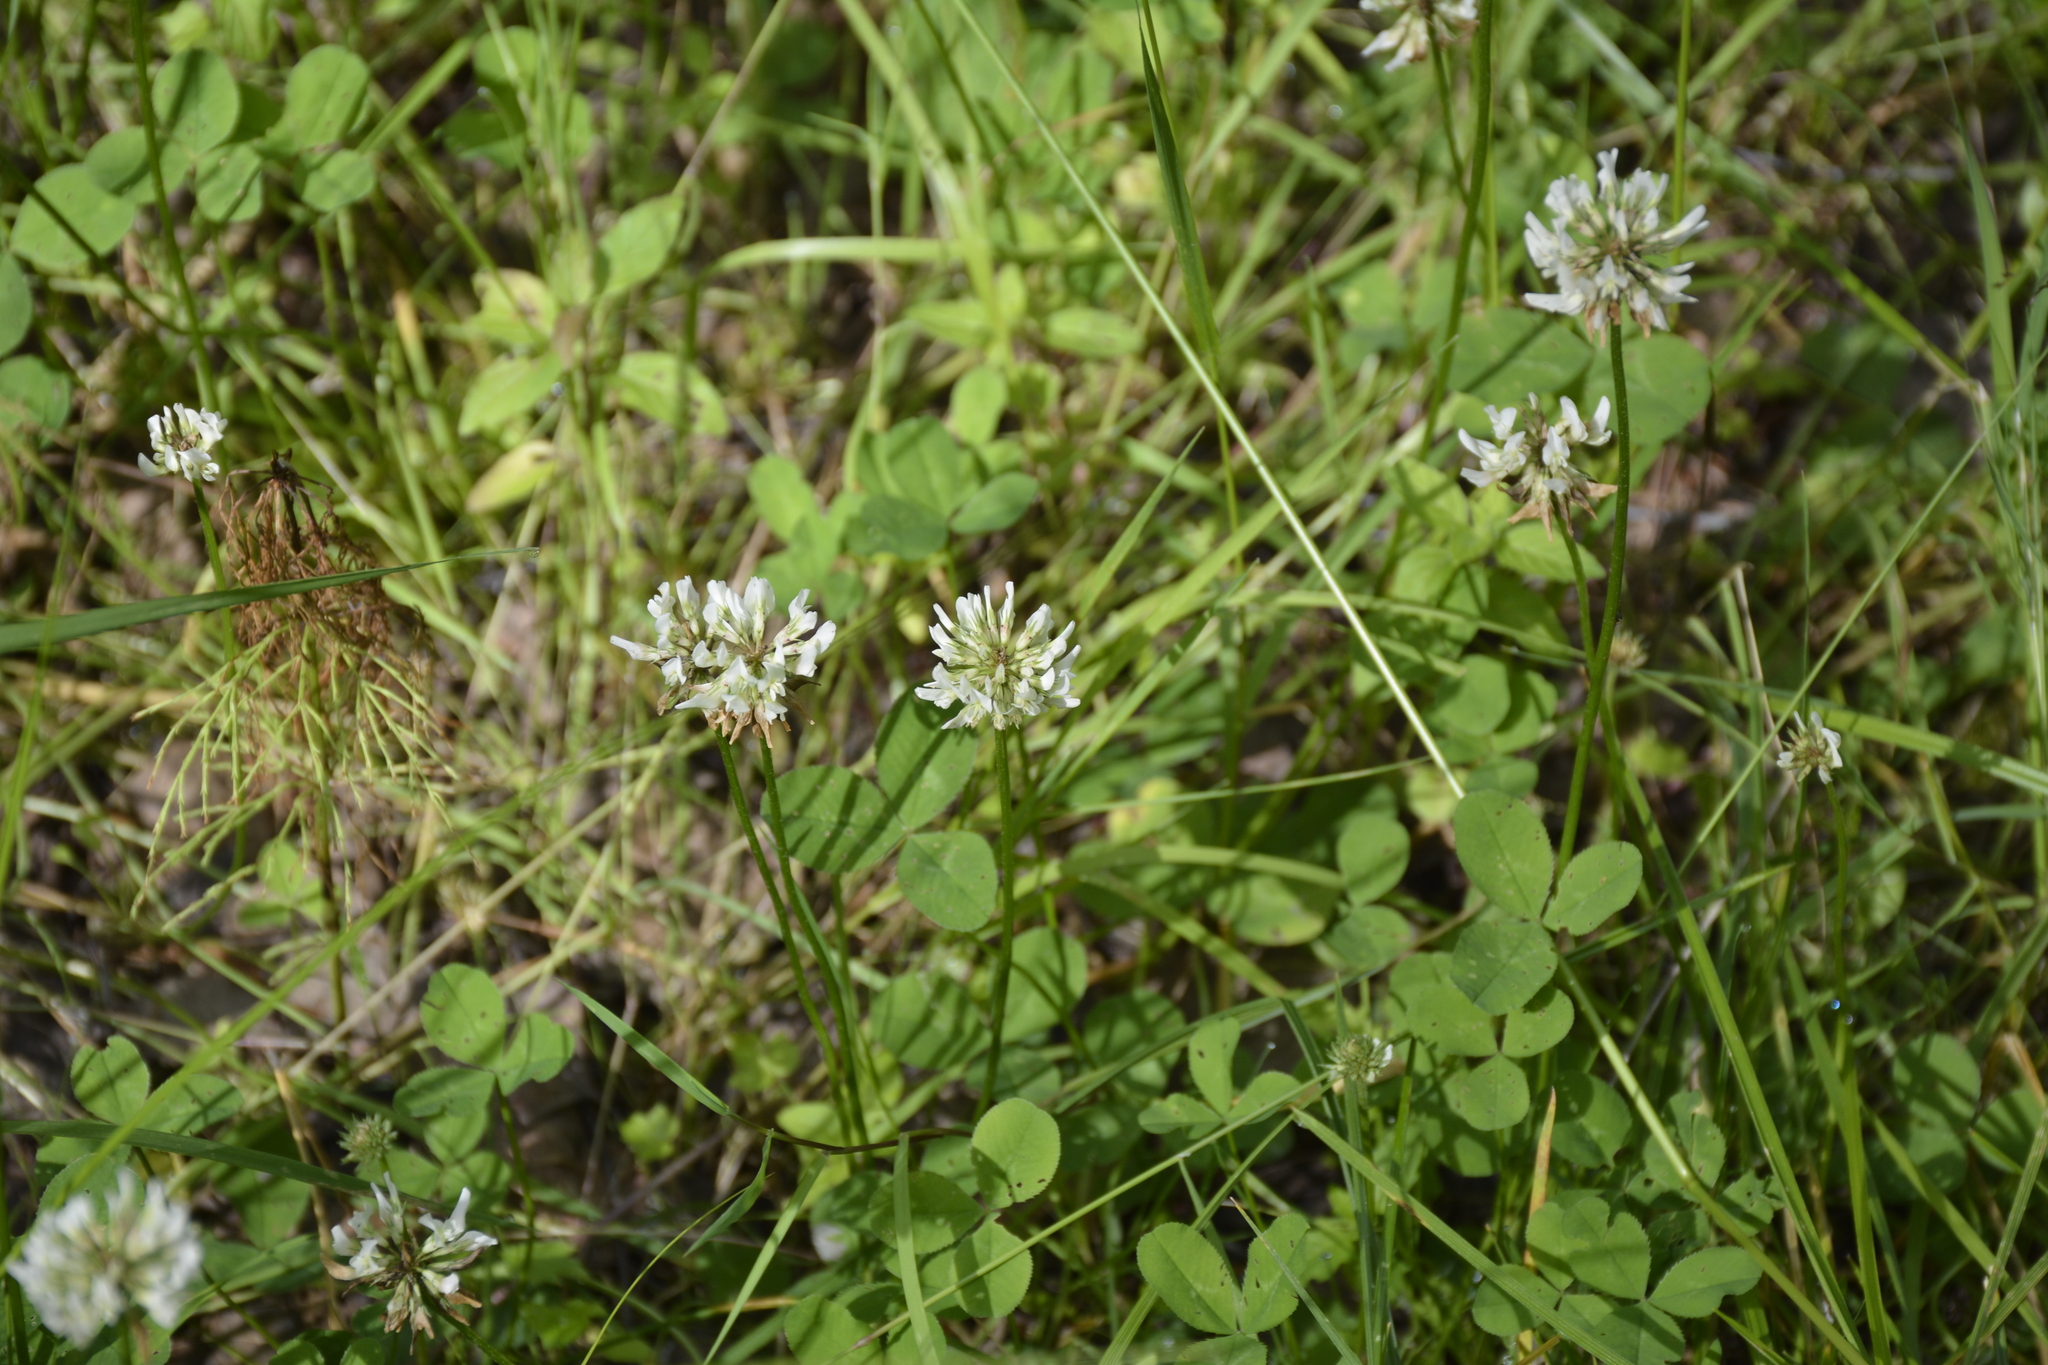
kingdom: Plantae
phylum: Tracheophyta
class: Magnoliopsida
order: Fabales
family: Fabaceae
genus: Trifolium
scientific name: Trifolium repens
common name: White clover
